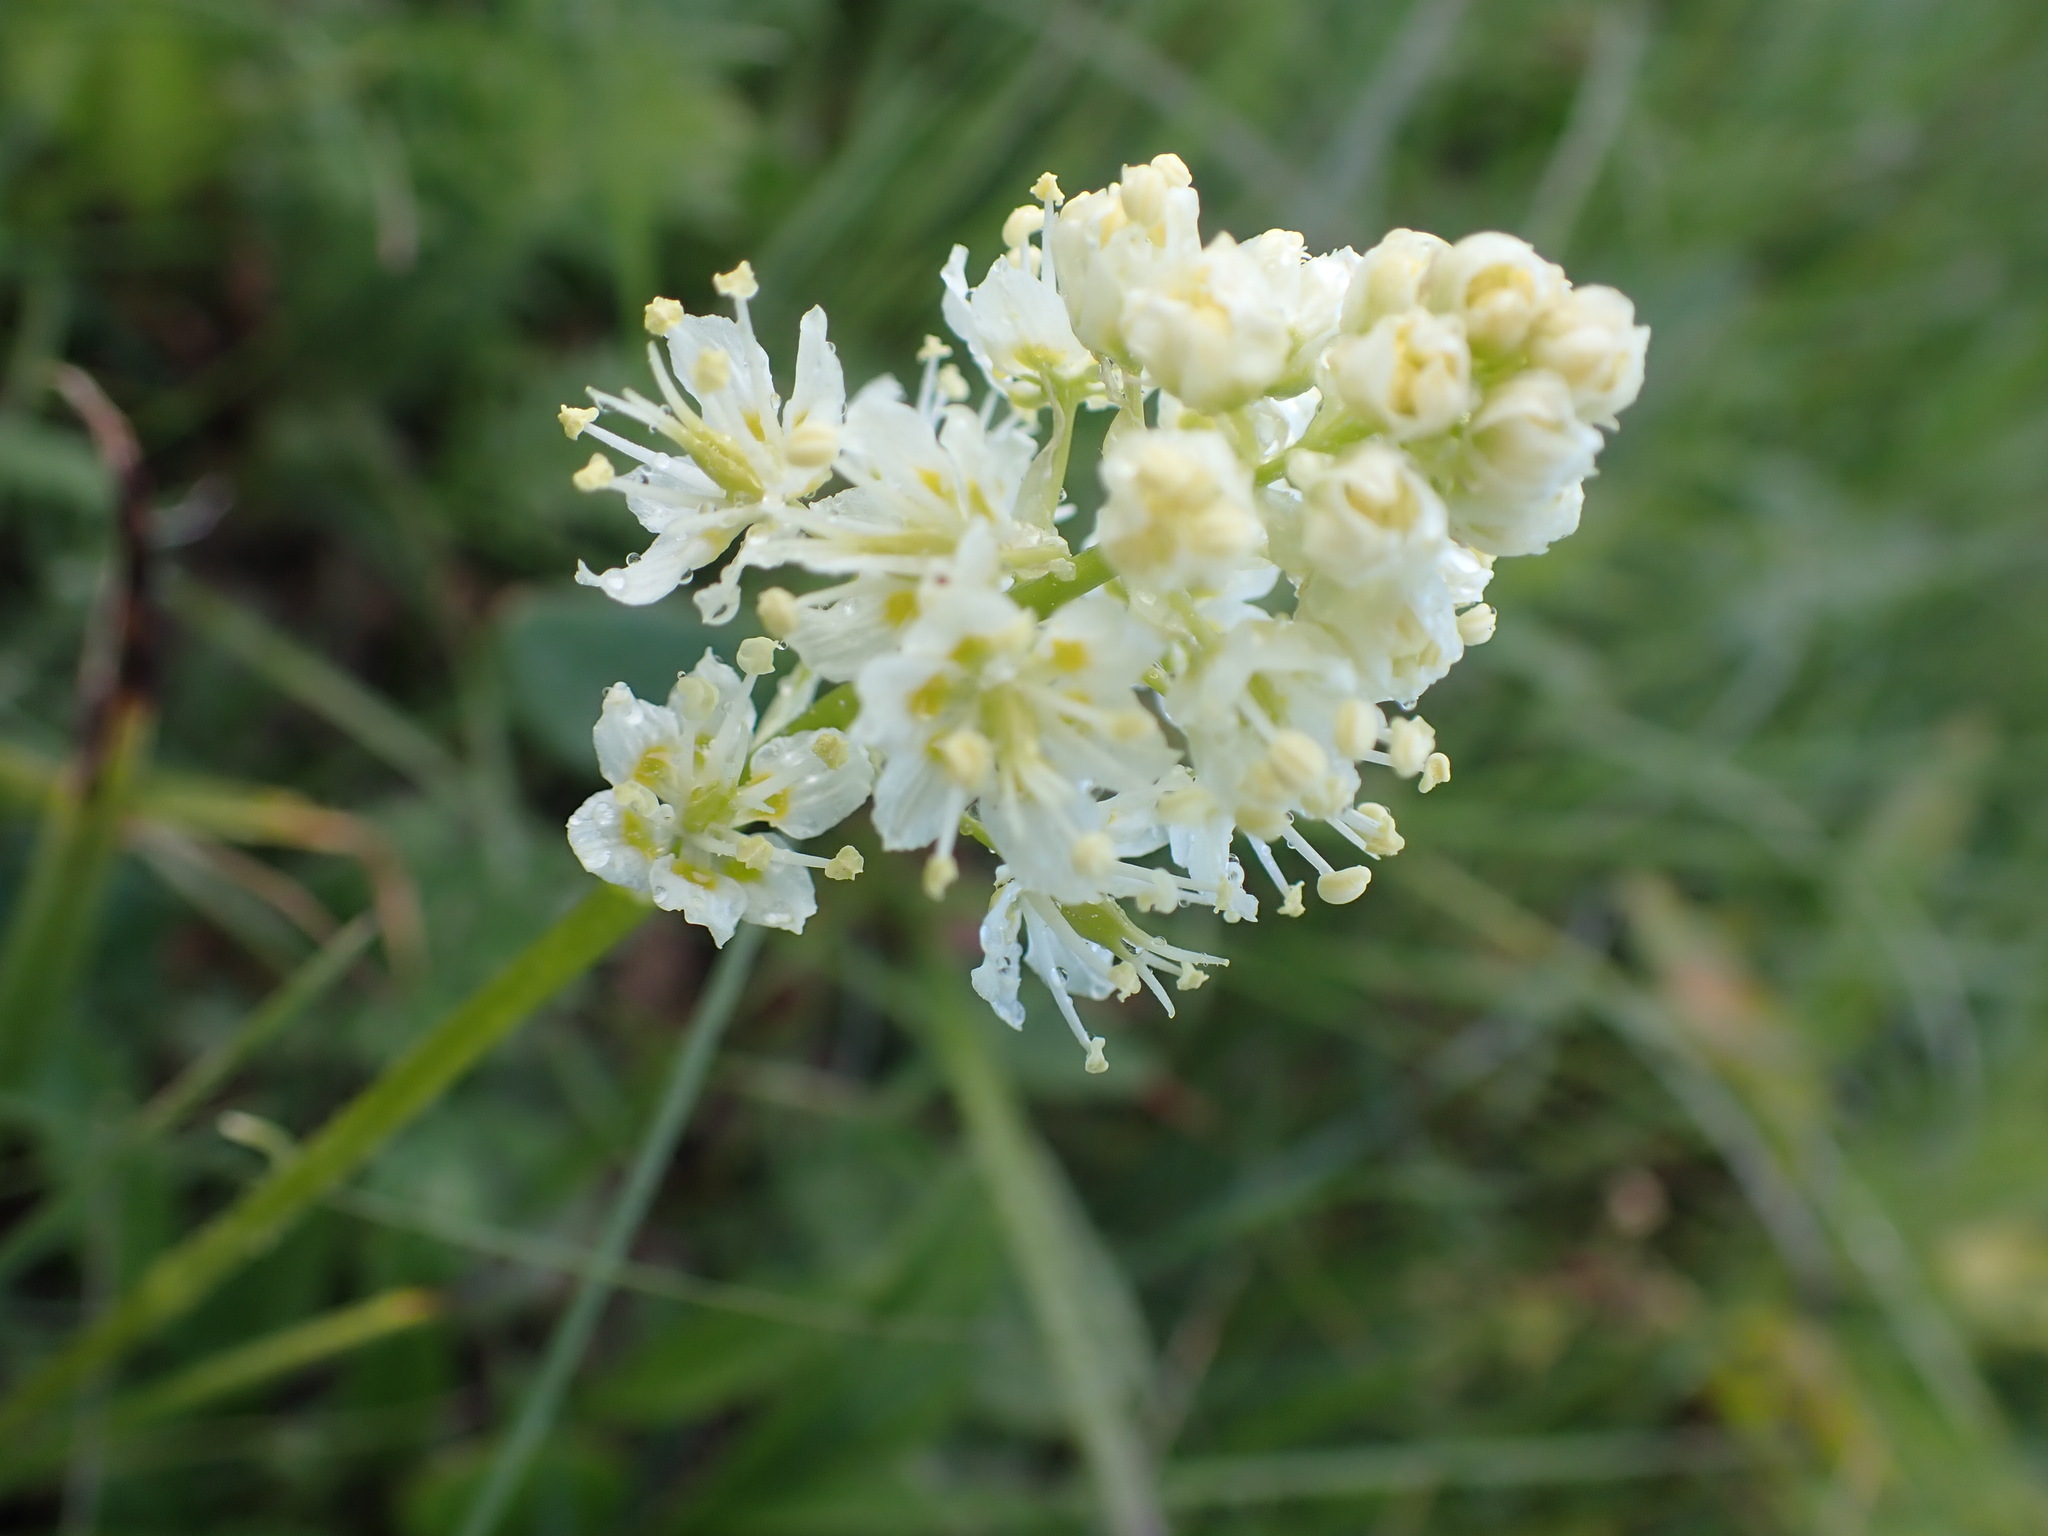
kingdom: Plantae
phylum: Tracheophyta
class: Liliopsida
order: Liliales
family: Melanthiaceae
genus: Toxicoscordion
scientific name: Toxicoscordion venenosum
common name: Meadow death camas
